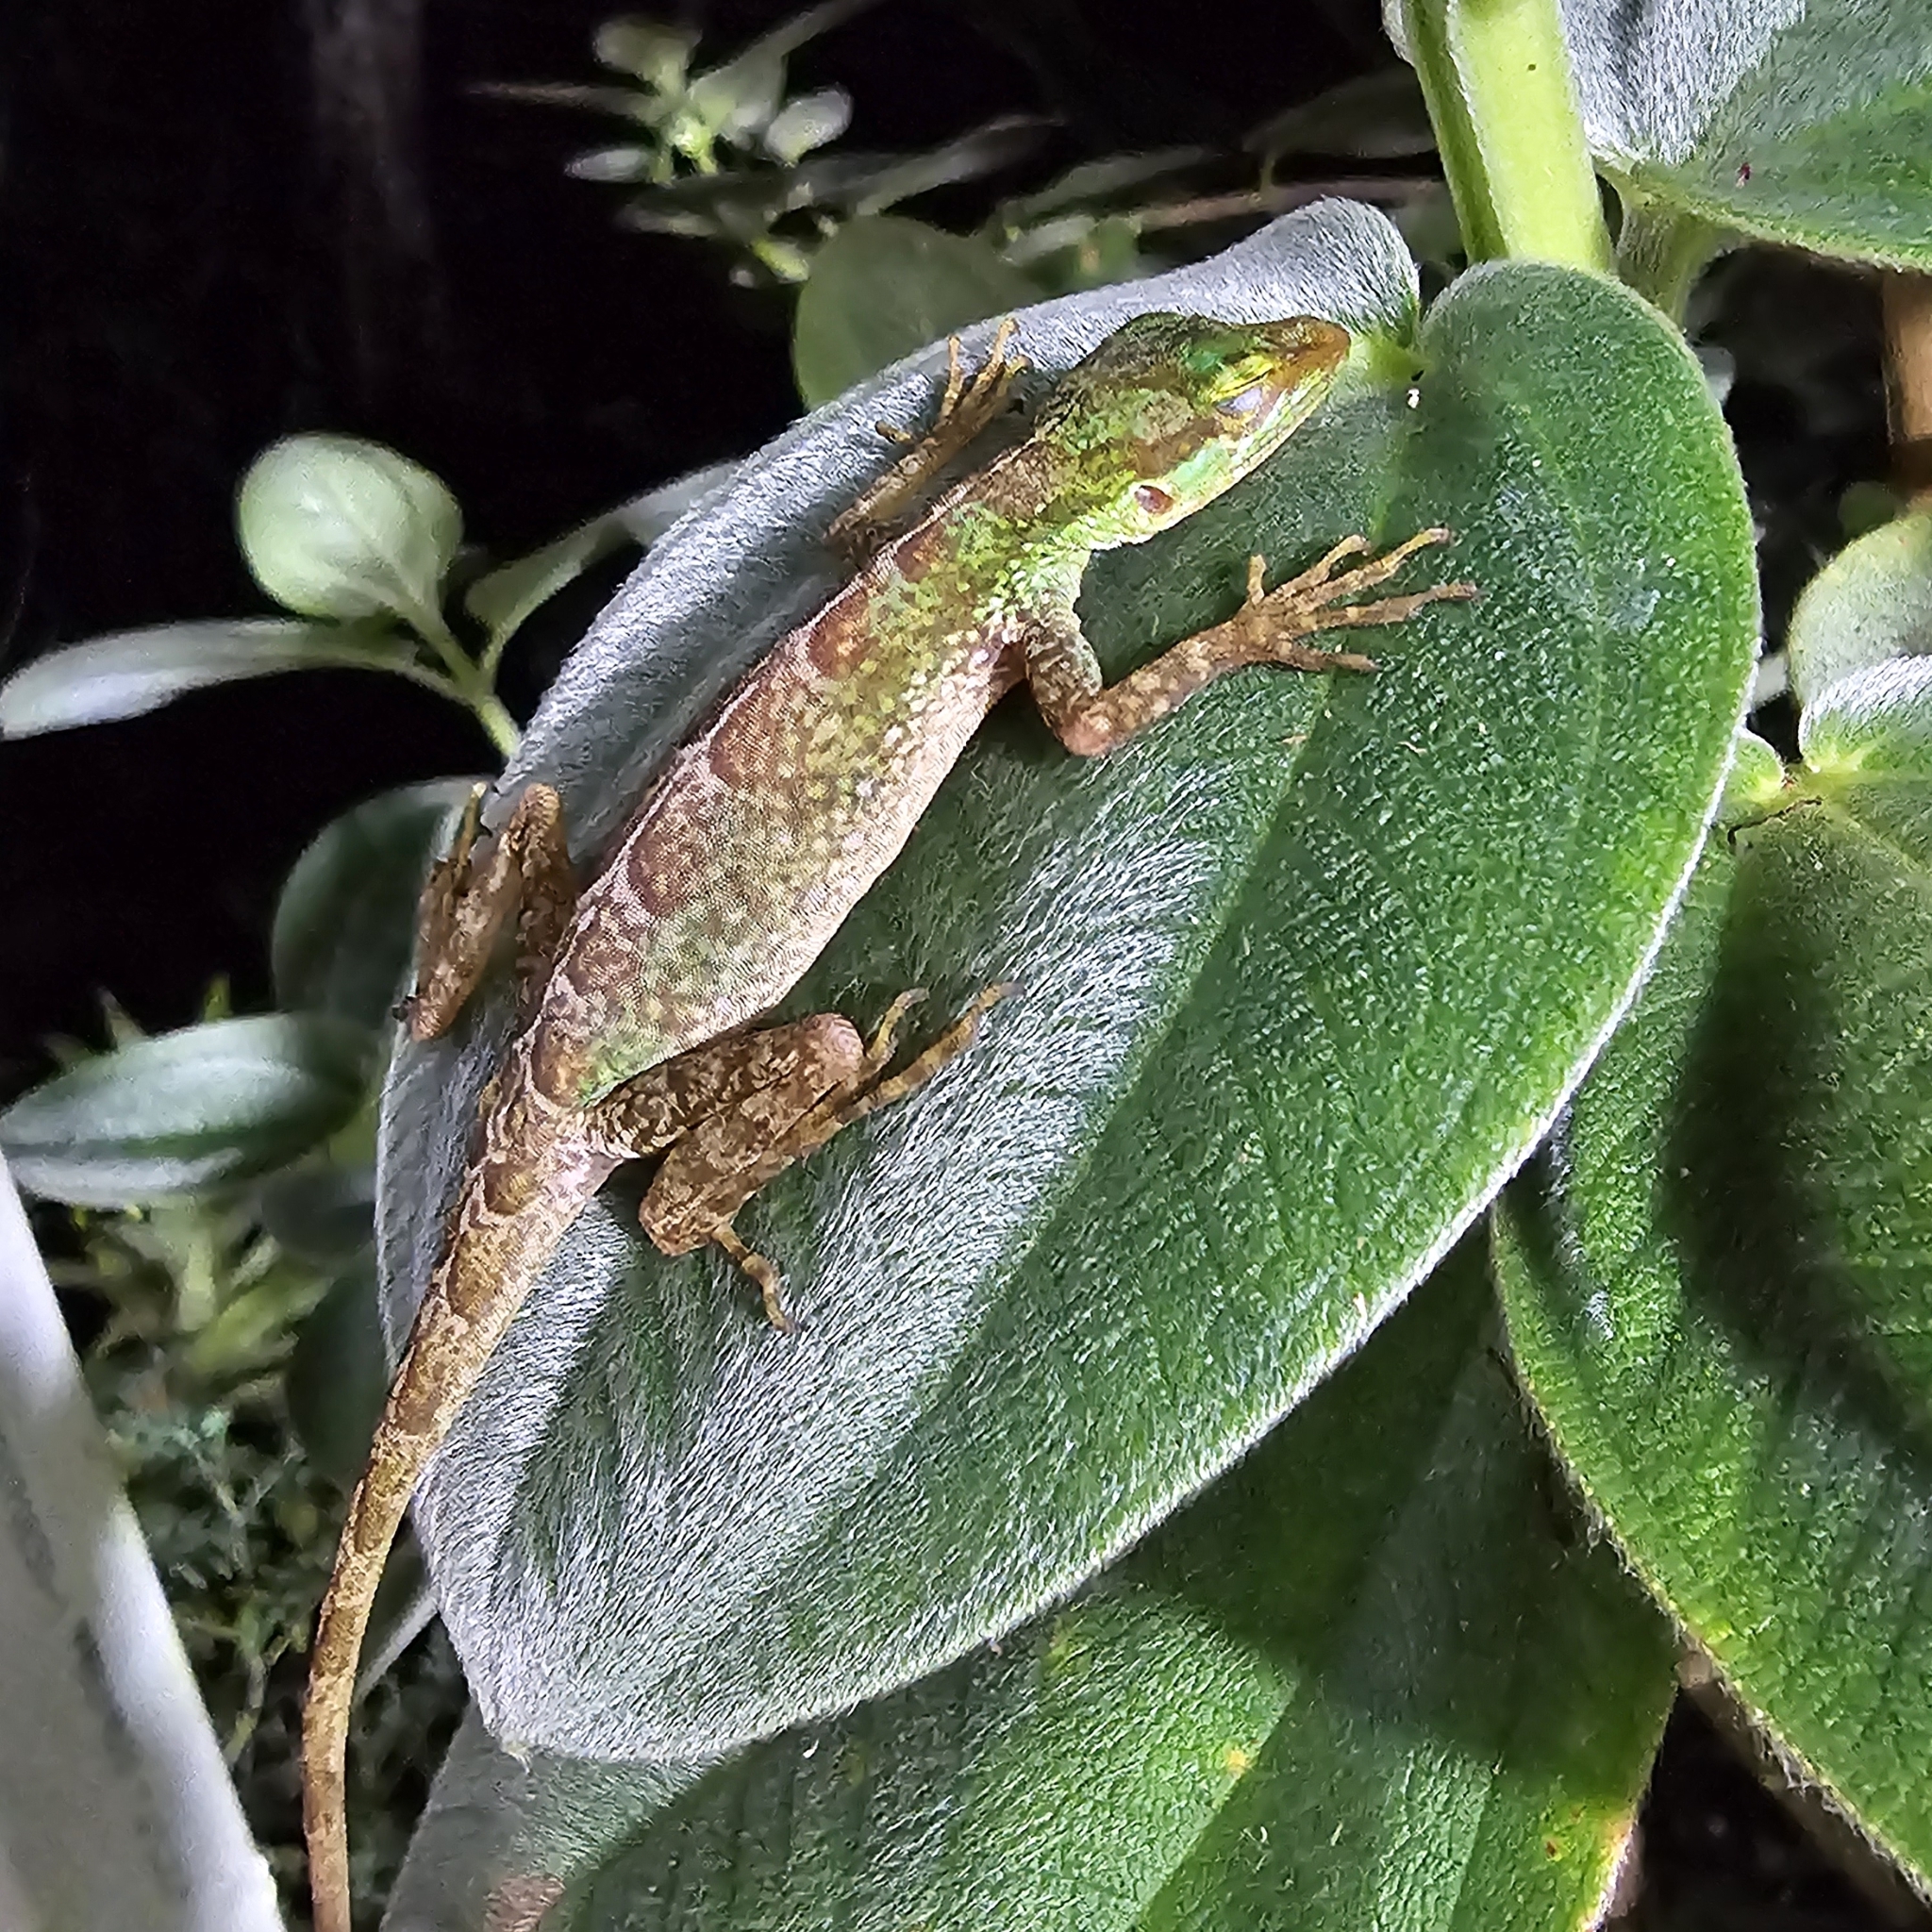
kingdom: Animalia
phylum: Chordata
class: Squamata
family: Dactyloidae
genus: Anolis
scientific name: Anolis ventrimaculatus
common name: Speckled anole
